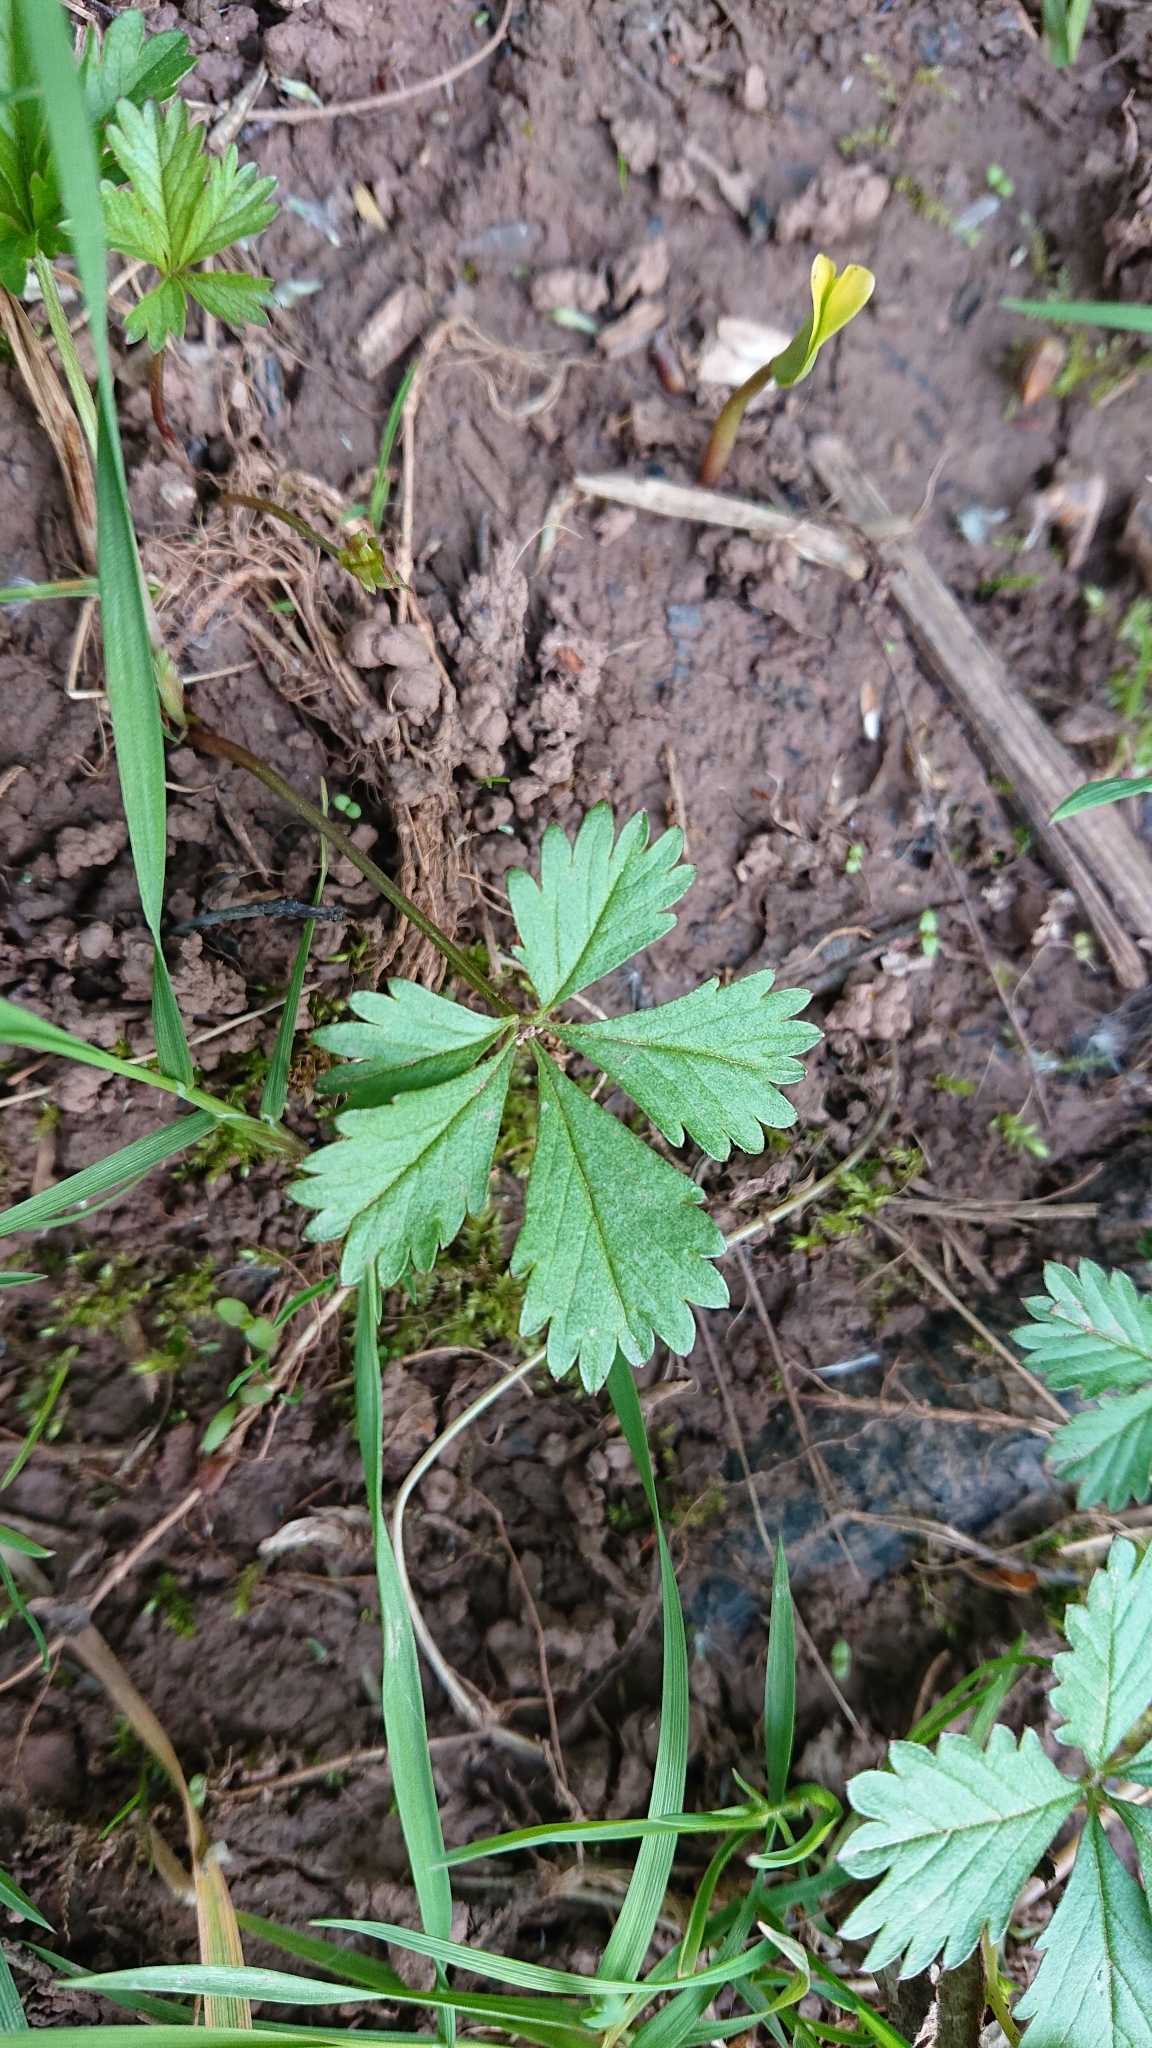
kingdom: Plantae
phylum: Tracheophyta
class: Magnoliopsida
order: Rosales
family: Rosaceae
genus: Potentilla
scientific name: Potentilla reptans
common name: Creeping cinquefoil
